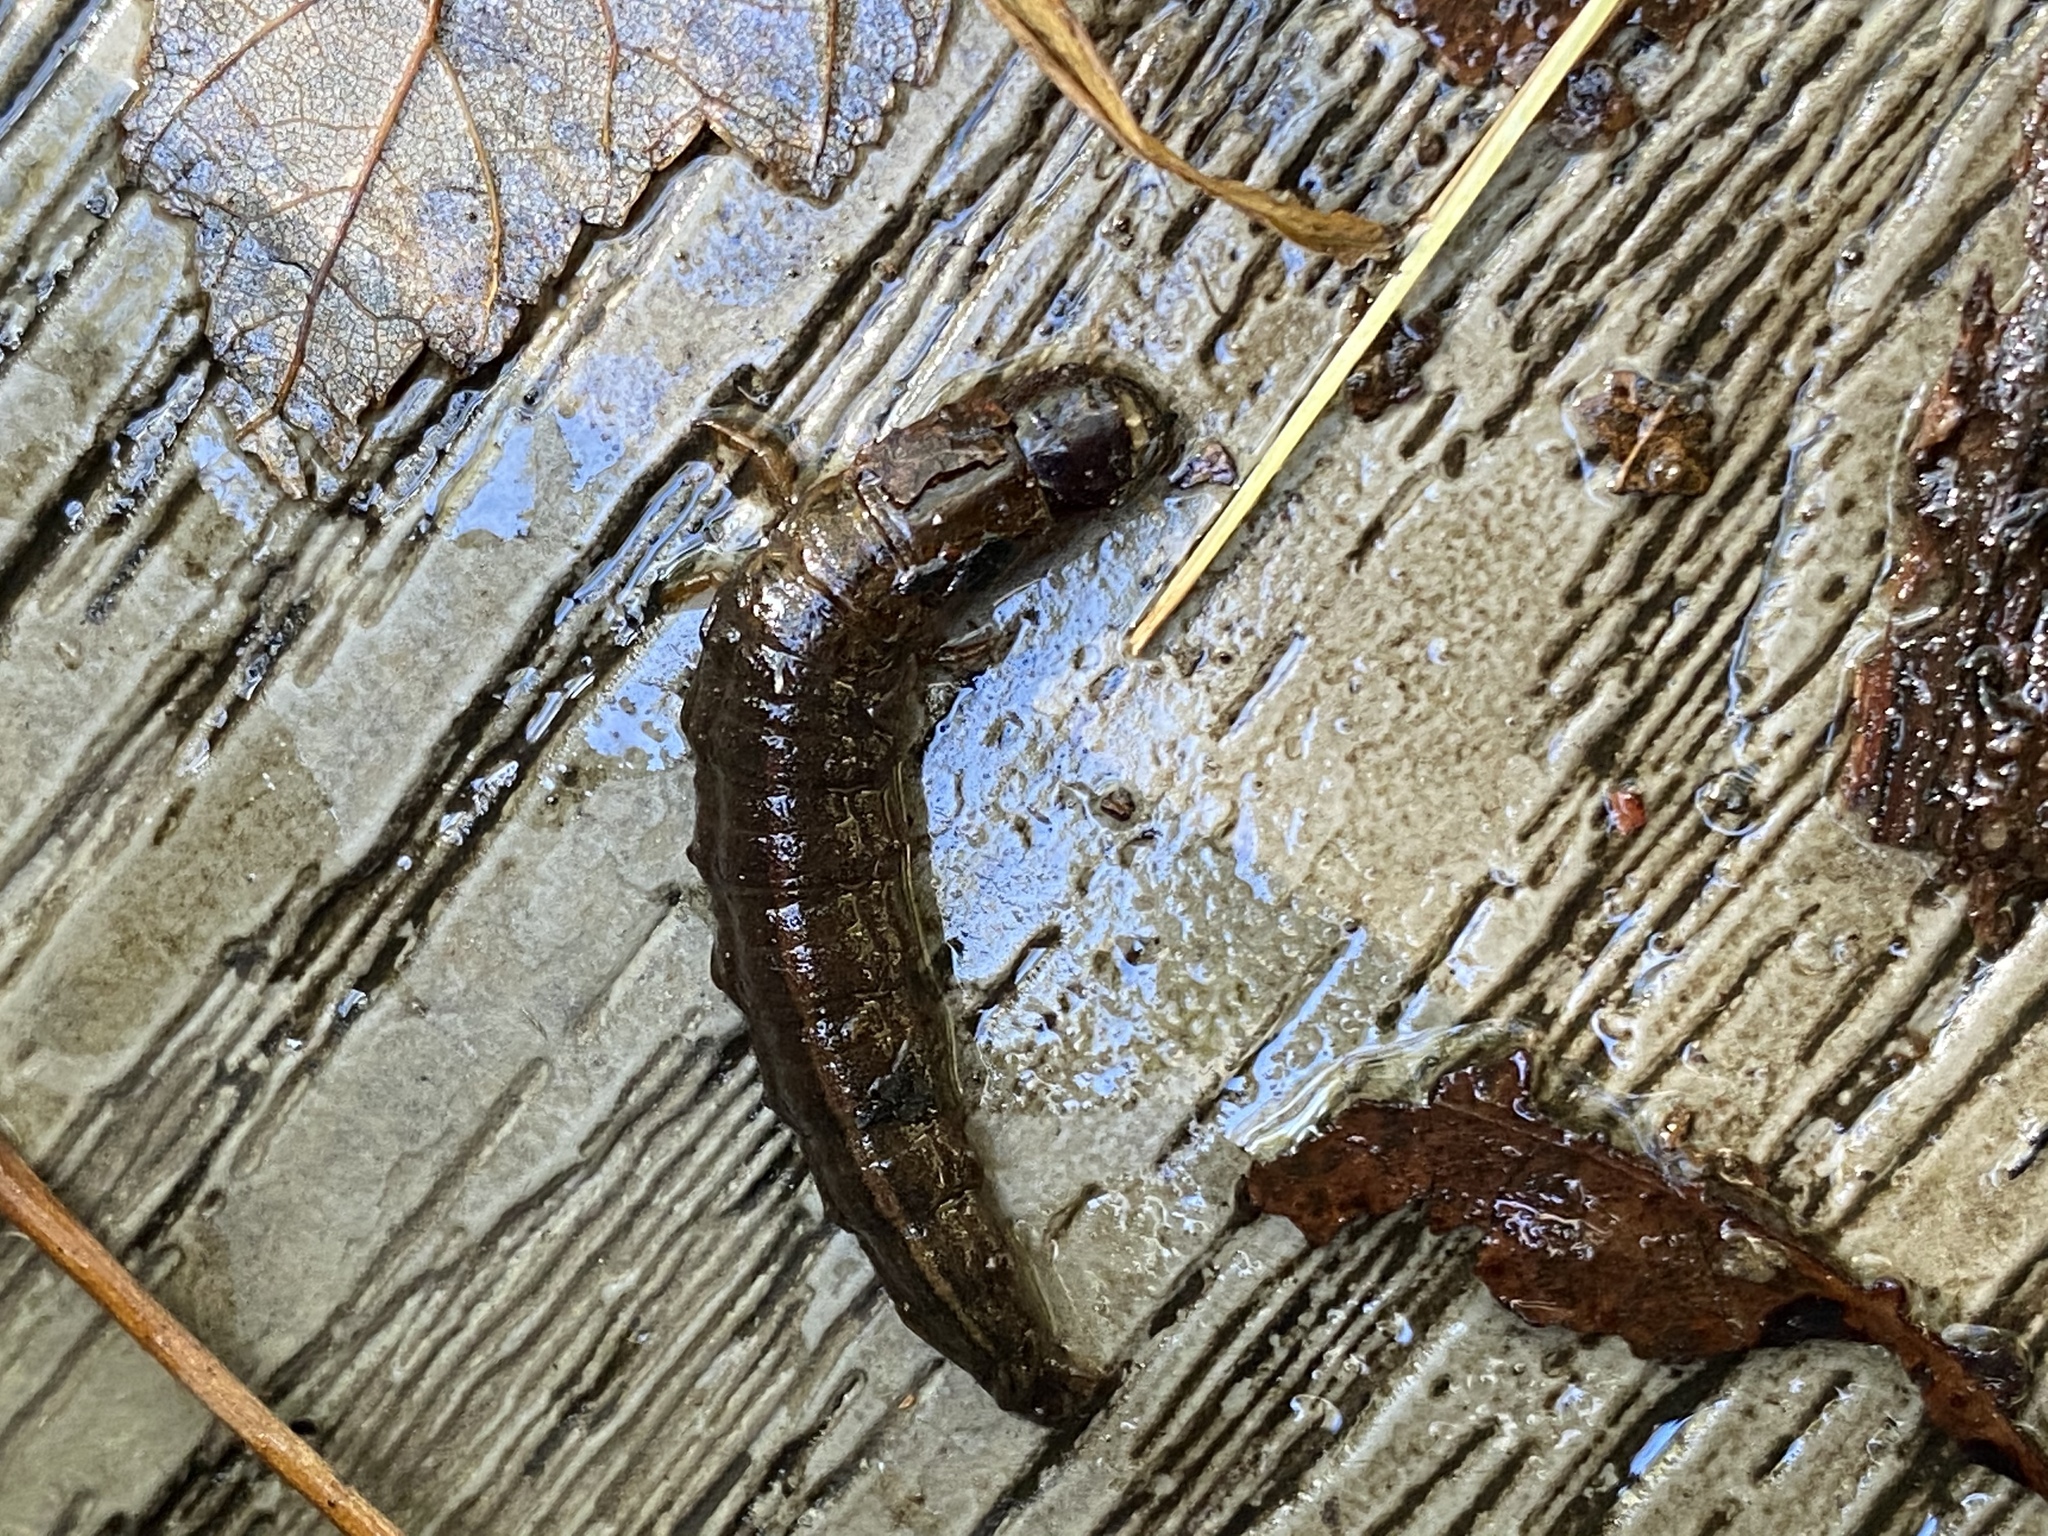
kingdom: Animalia
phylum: Arthropoda
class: Insecta
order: Megaloptera
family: Corydalidae
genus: Chauliodes
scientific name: Chauliodes pectinicornis
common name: Summer fishfly
